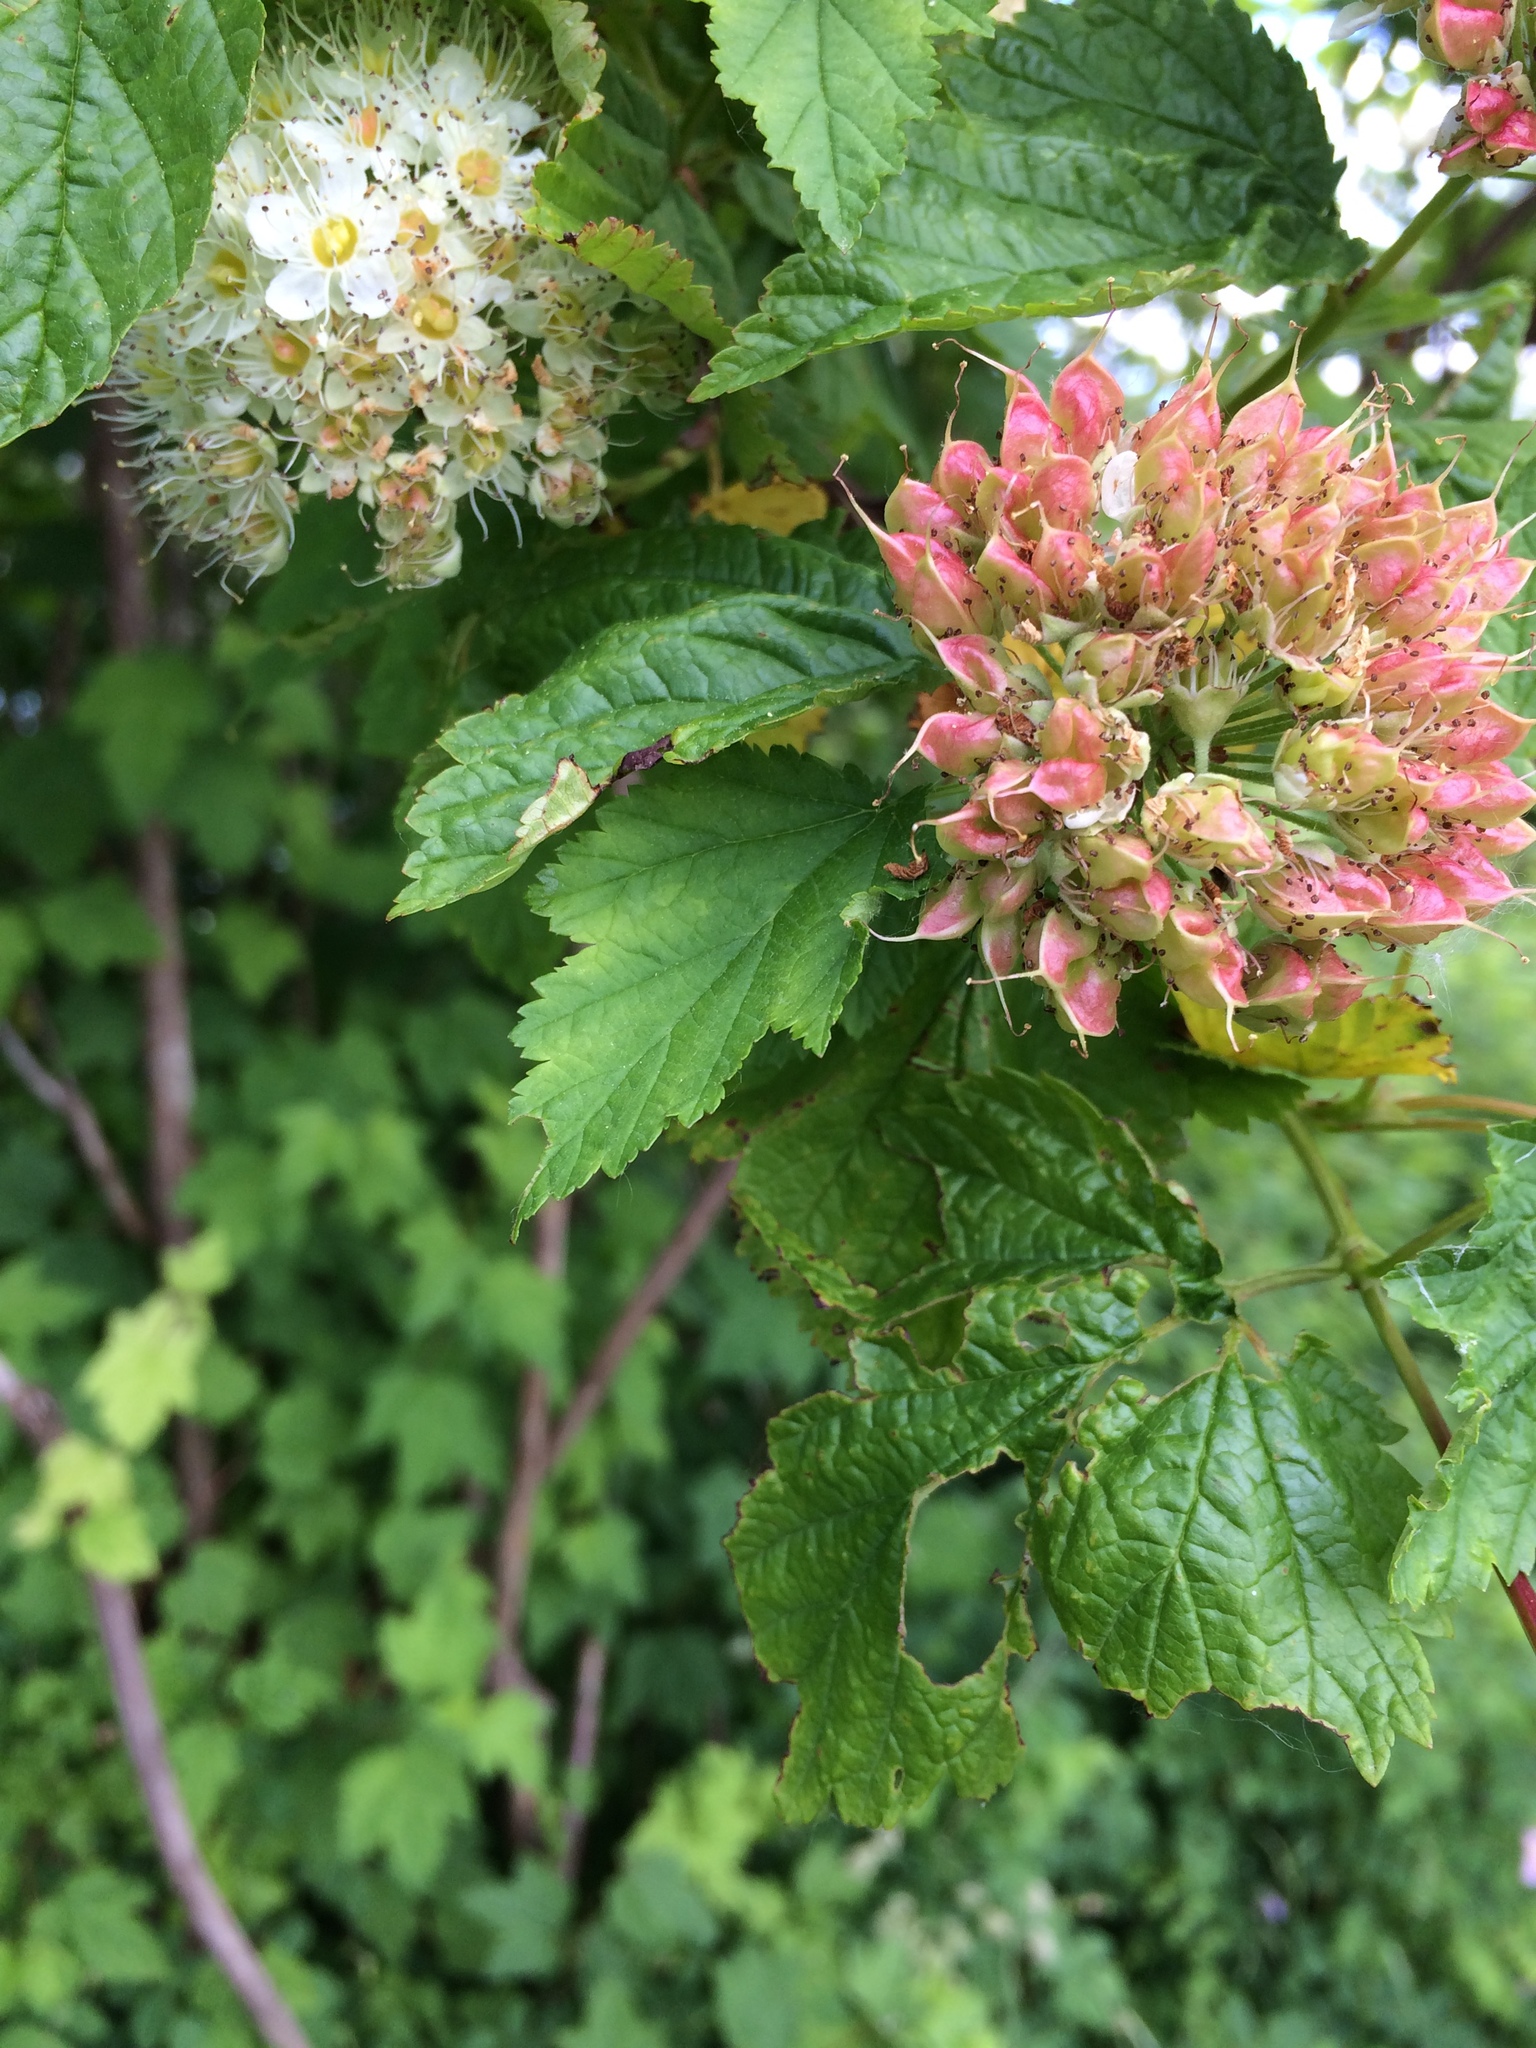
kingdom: Plantae
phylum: Tracheophyta
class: Magnoliopsida
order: Rosales
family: Rosaceae
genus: Physocarpus
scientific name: Physocarpus capitatus
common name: Pacific ninebark
